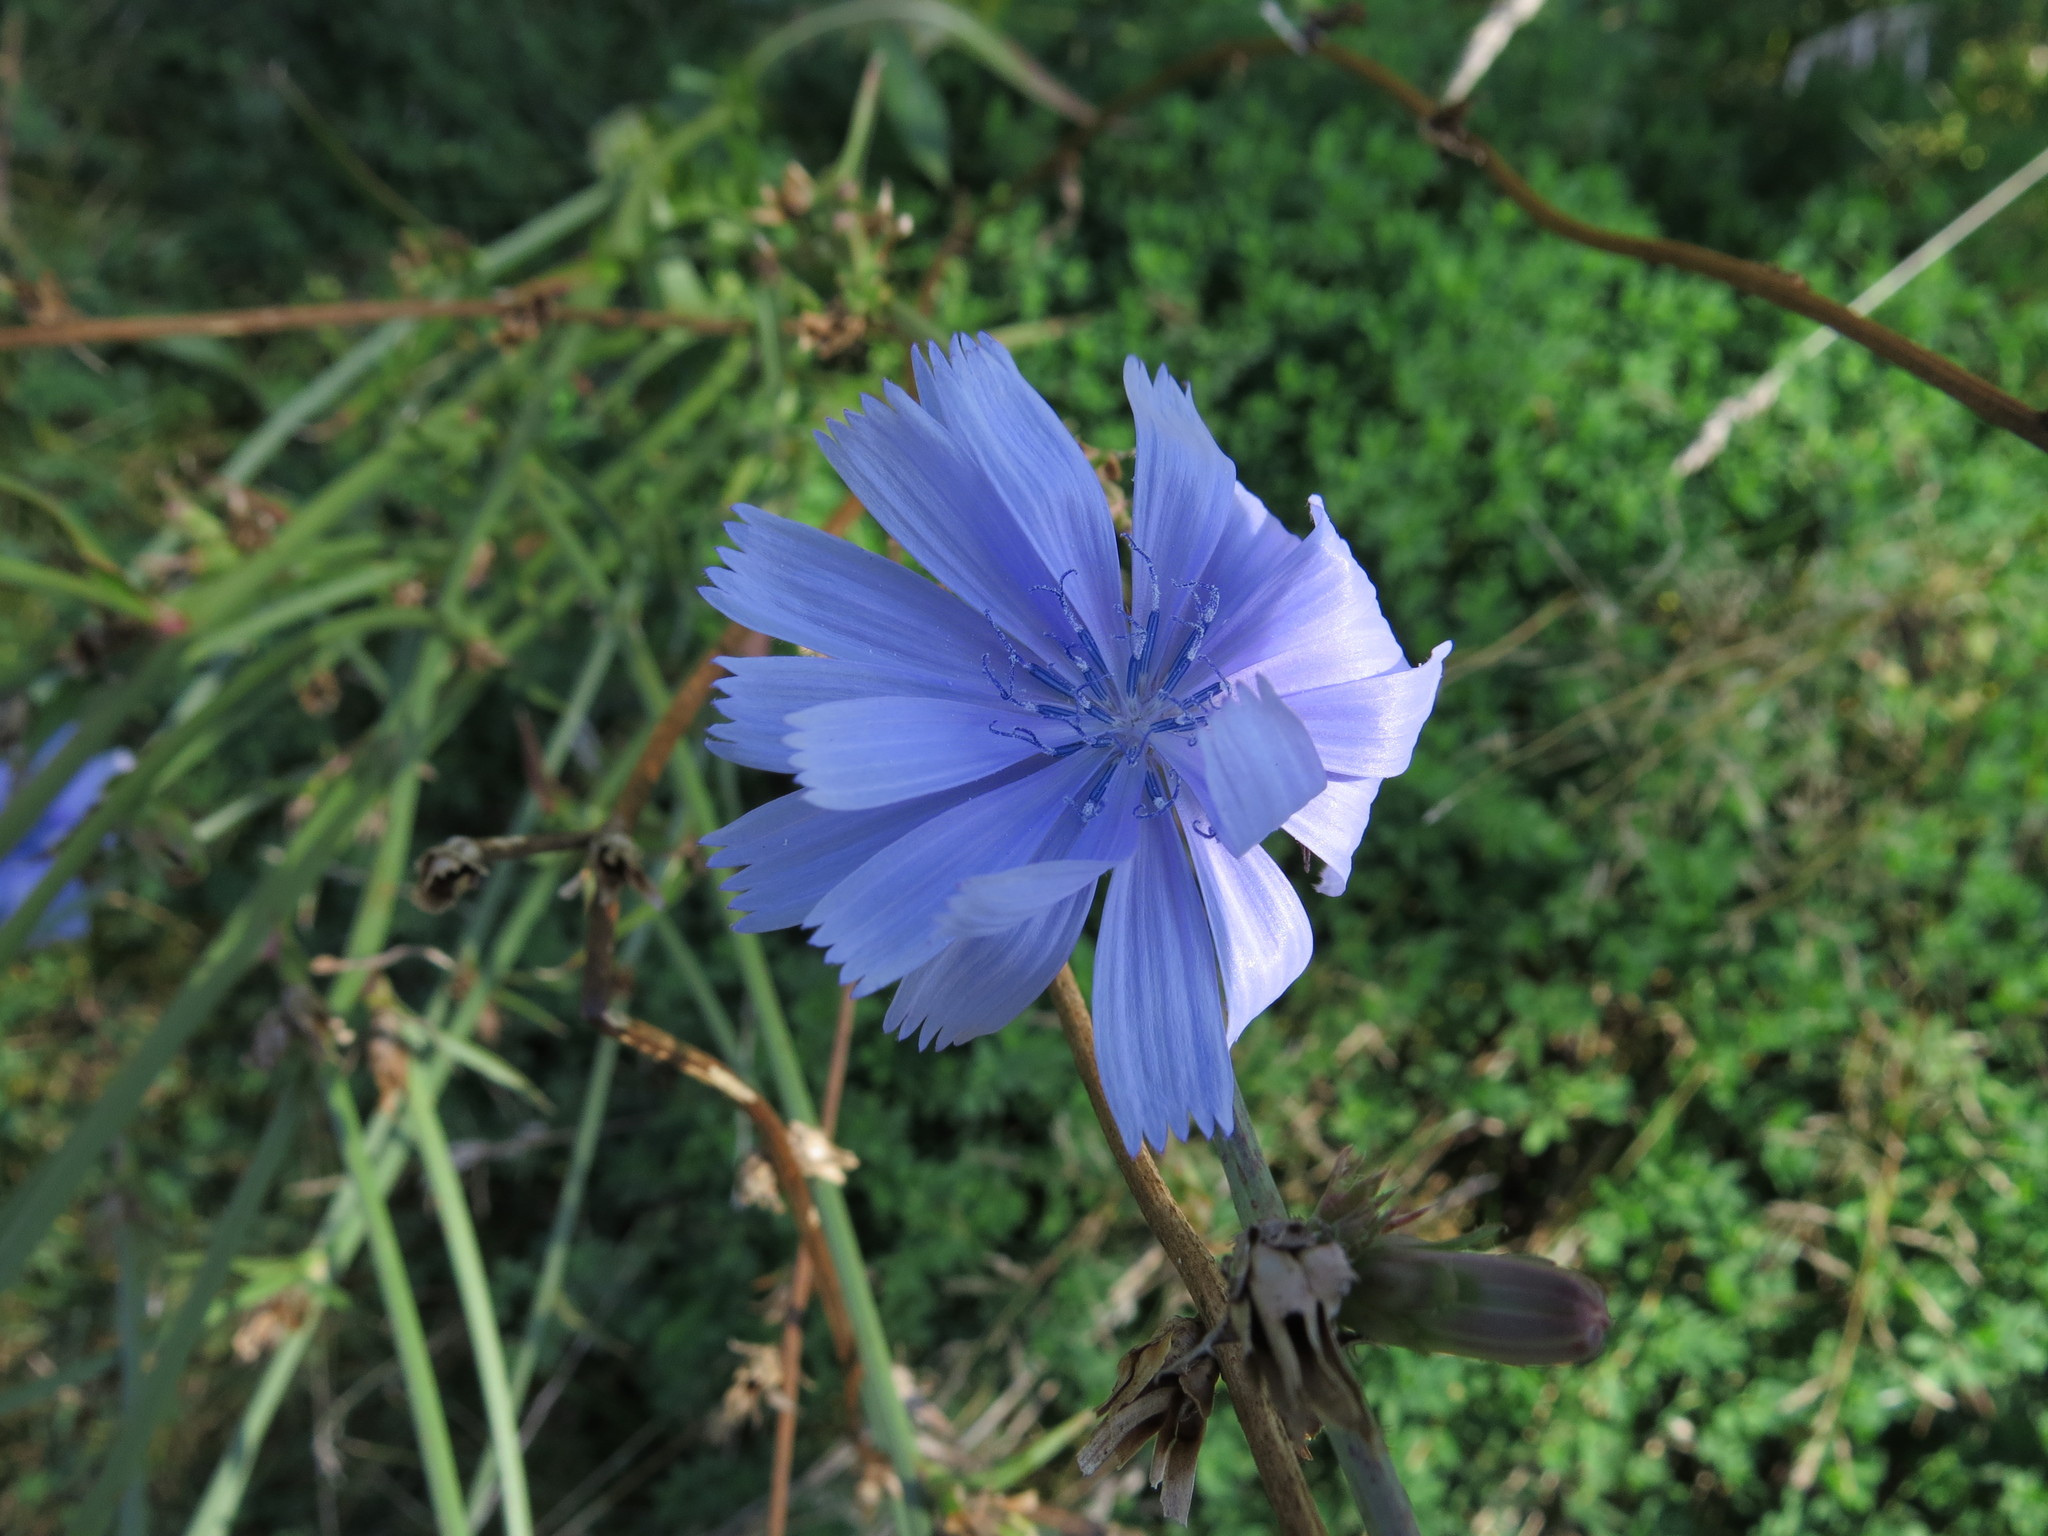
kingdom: Plantae
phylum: Tracheophyta
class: Magnoliopsida
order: Asterales
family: Asteraceae
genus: Cichorium
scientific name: Cichorium intybus
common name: Chicory
